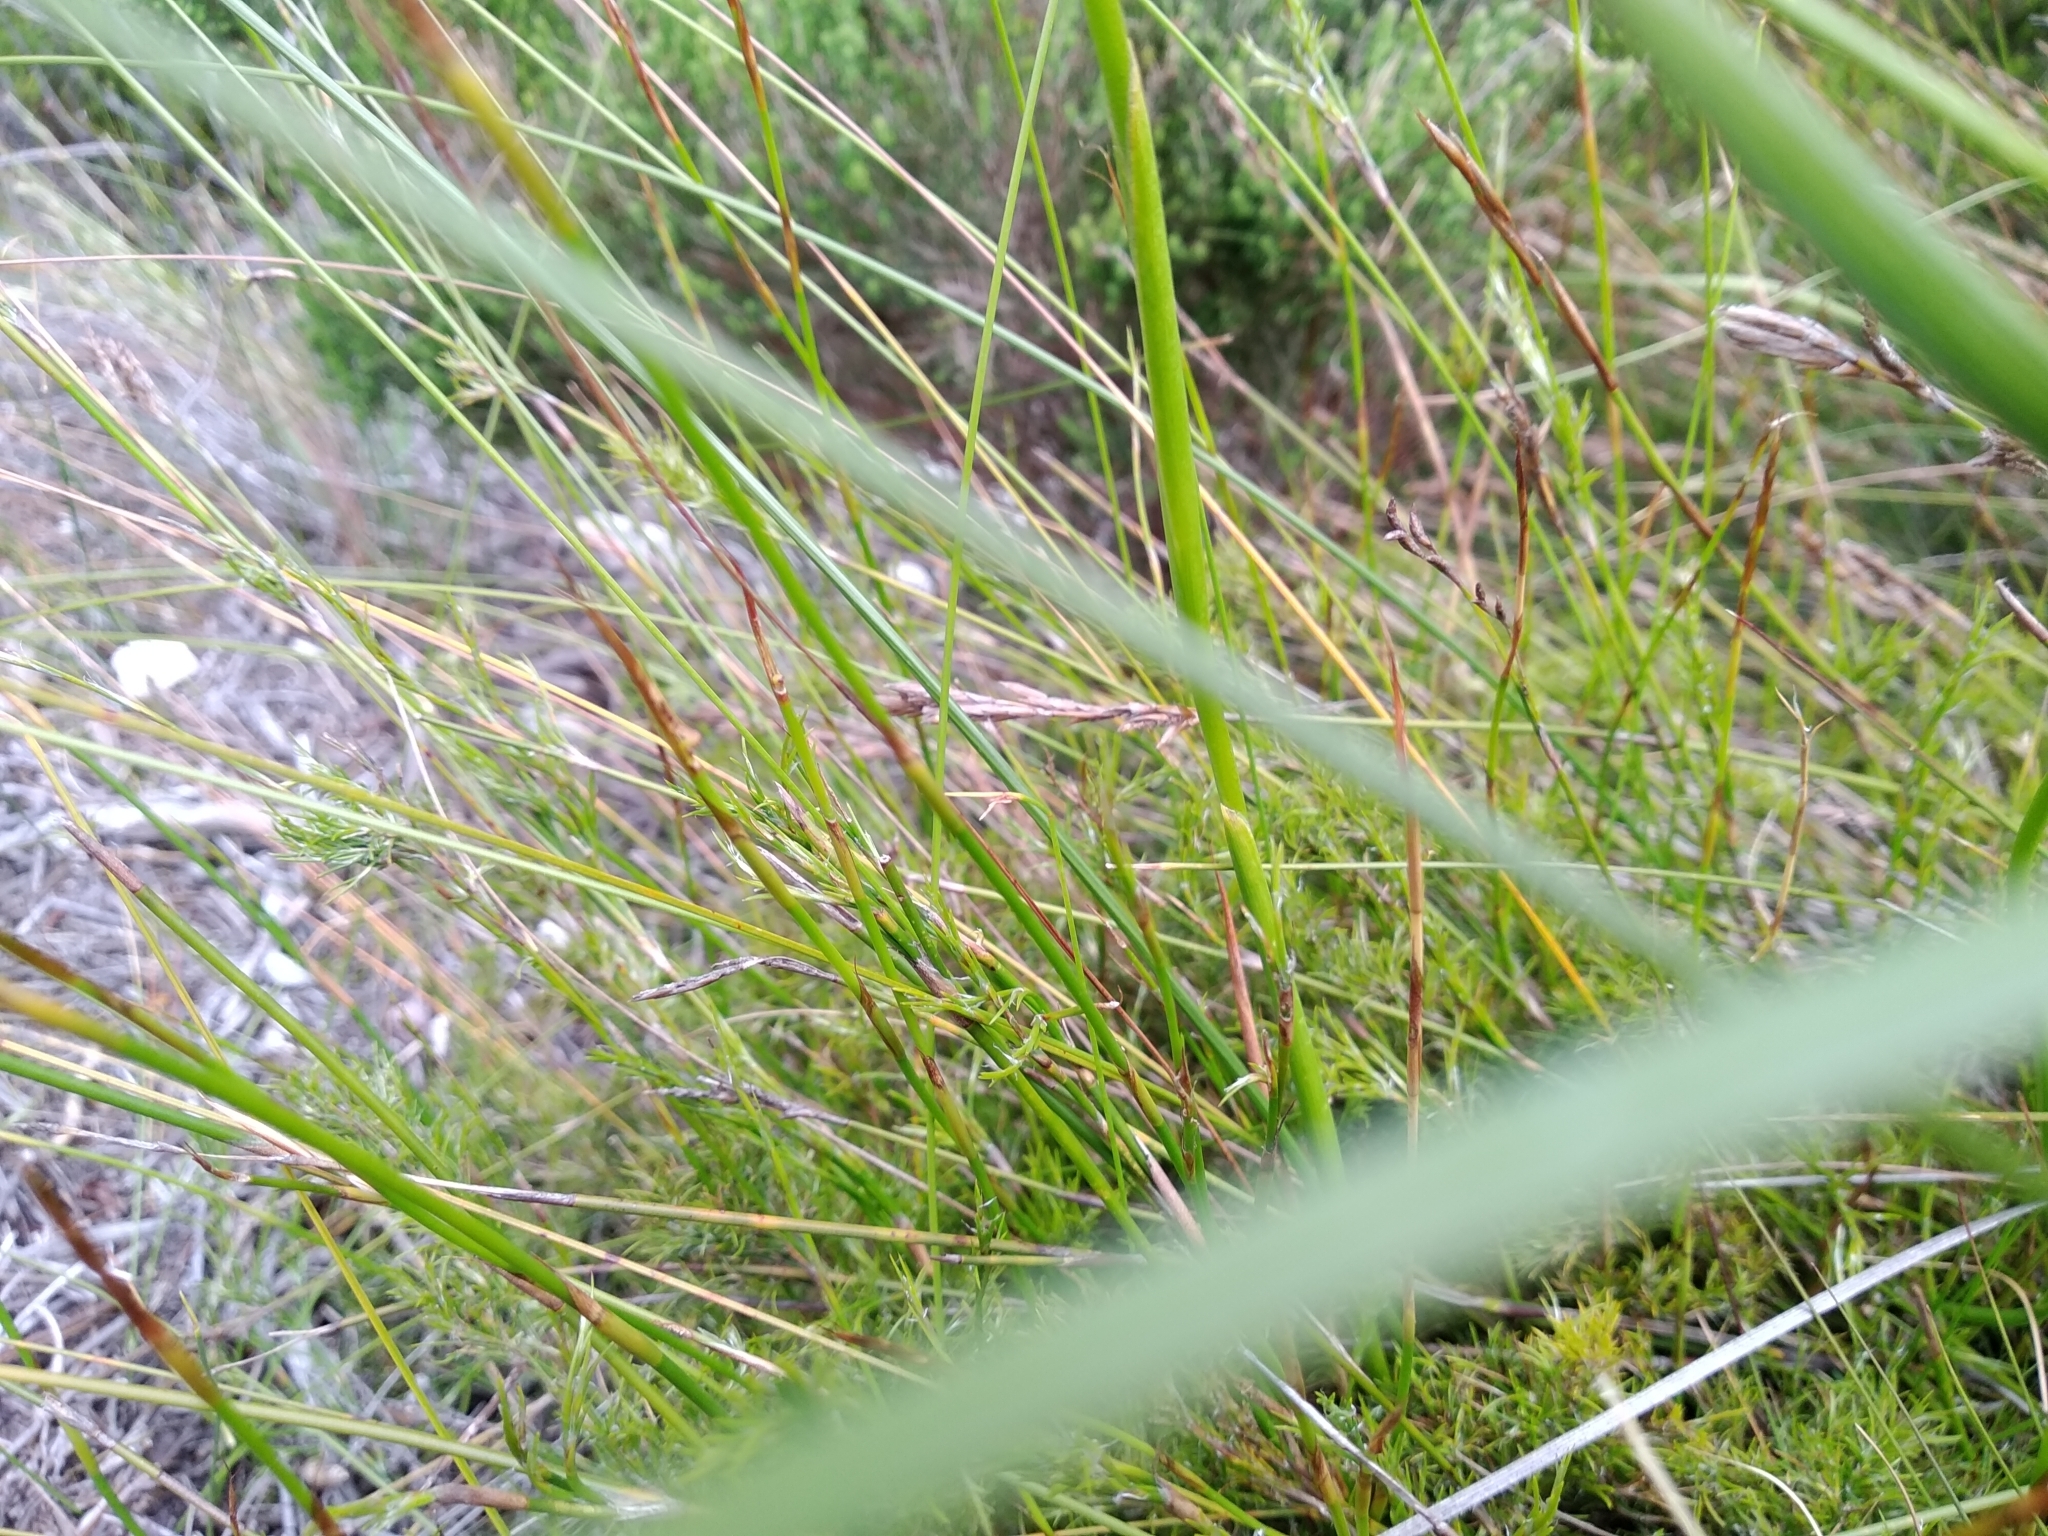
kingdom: Plantae
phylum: Tracheophyta
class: Liliopsida
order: Asparagales
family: Iridaceae
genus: Moraea
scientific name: Moraea neglecta
